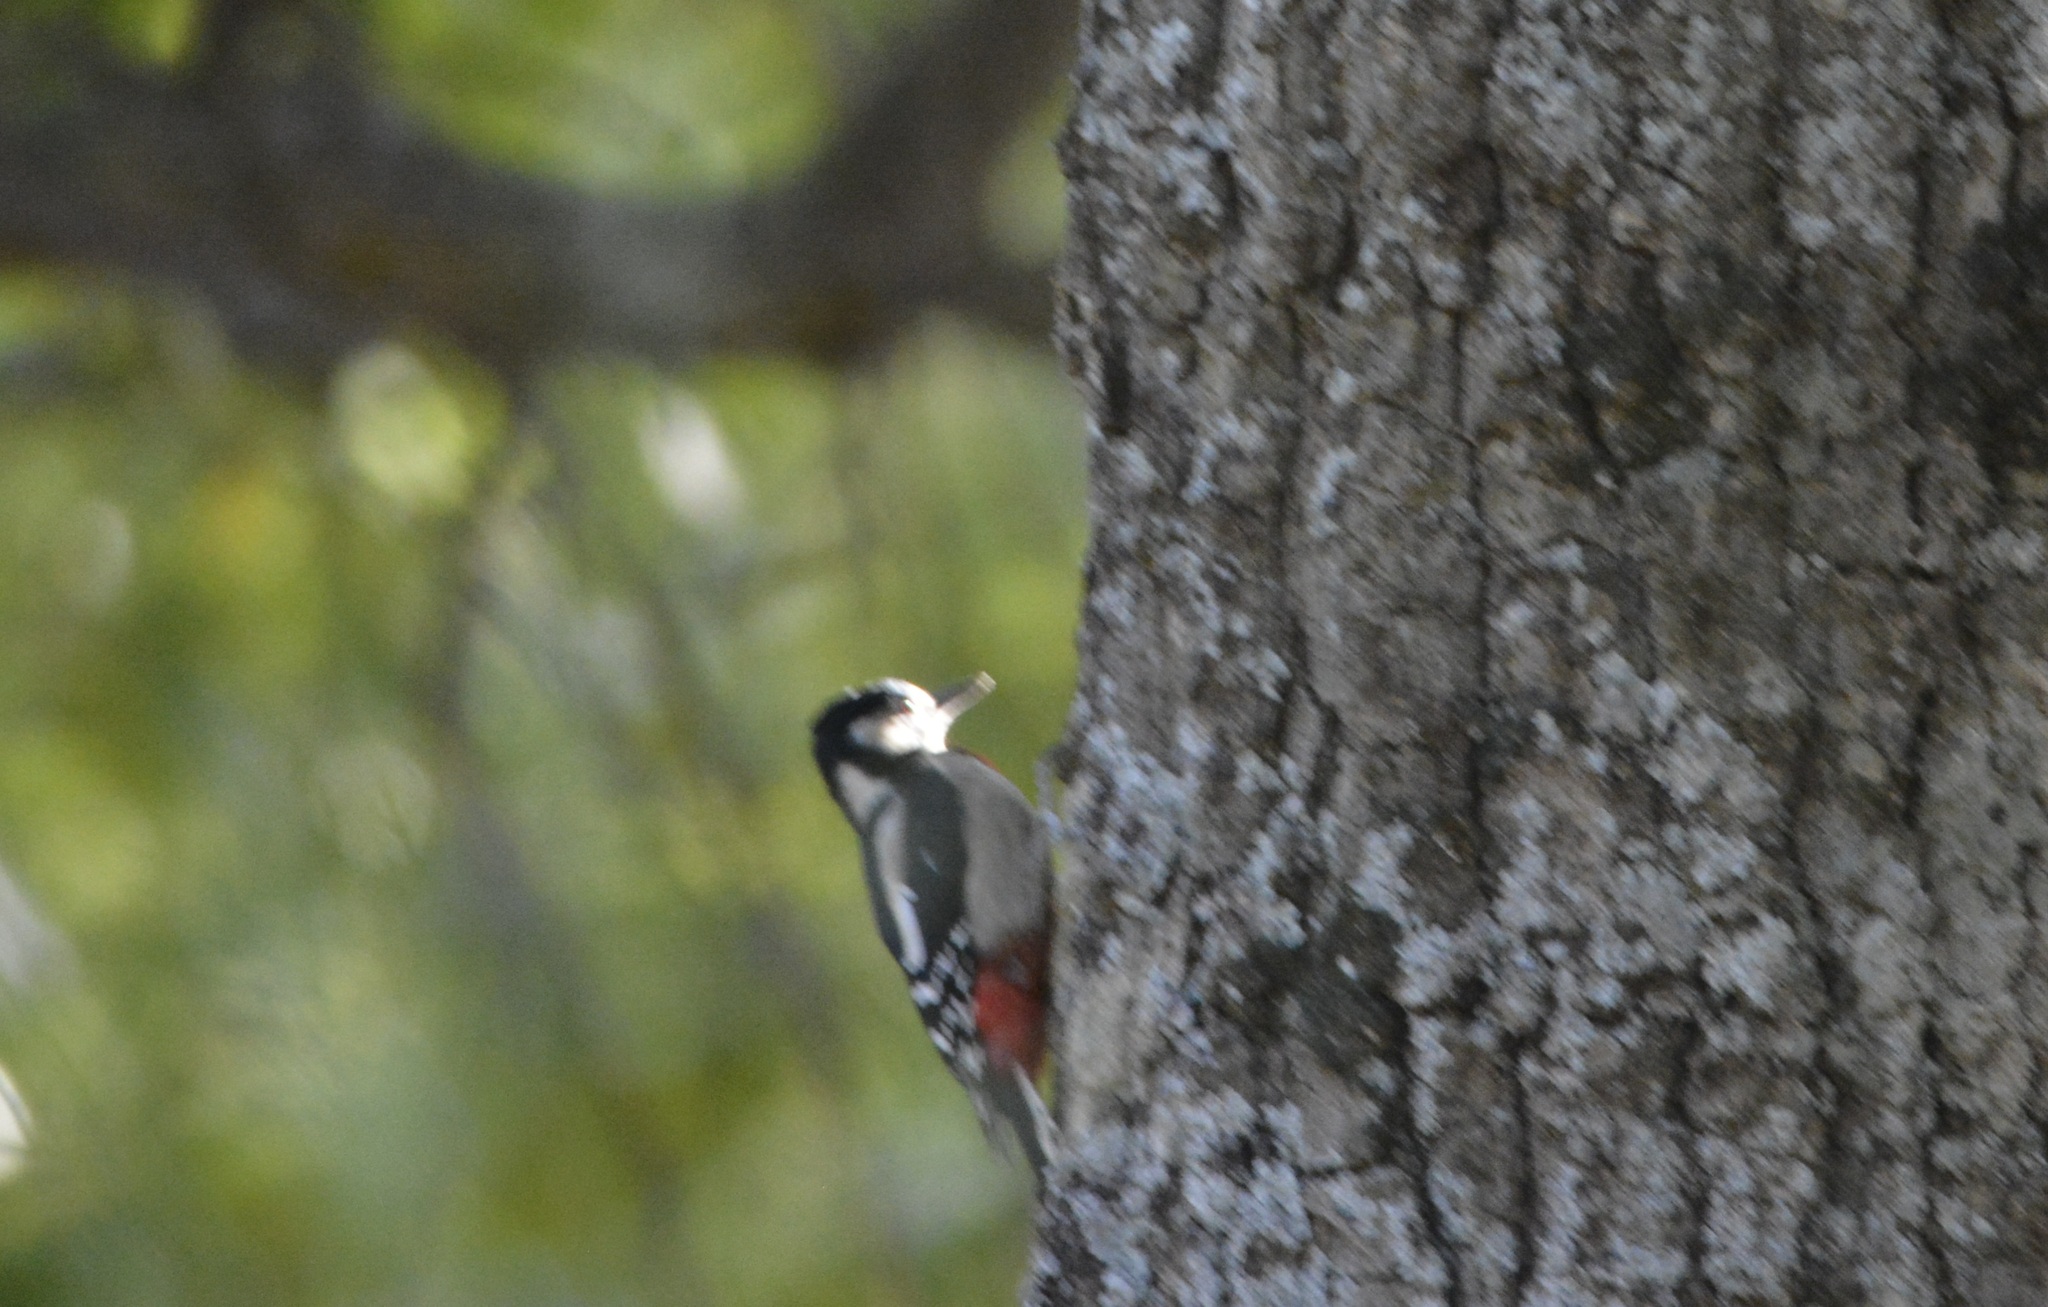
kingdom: Animalia
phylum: Chordata
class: Aves
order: Piciformes
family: Picidae
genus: Dendrocopos
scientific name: Dendrocopos major
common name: Great spotted woodpecker
